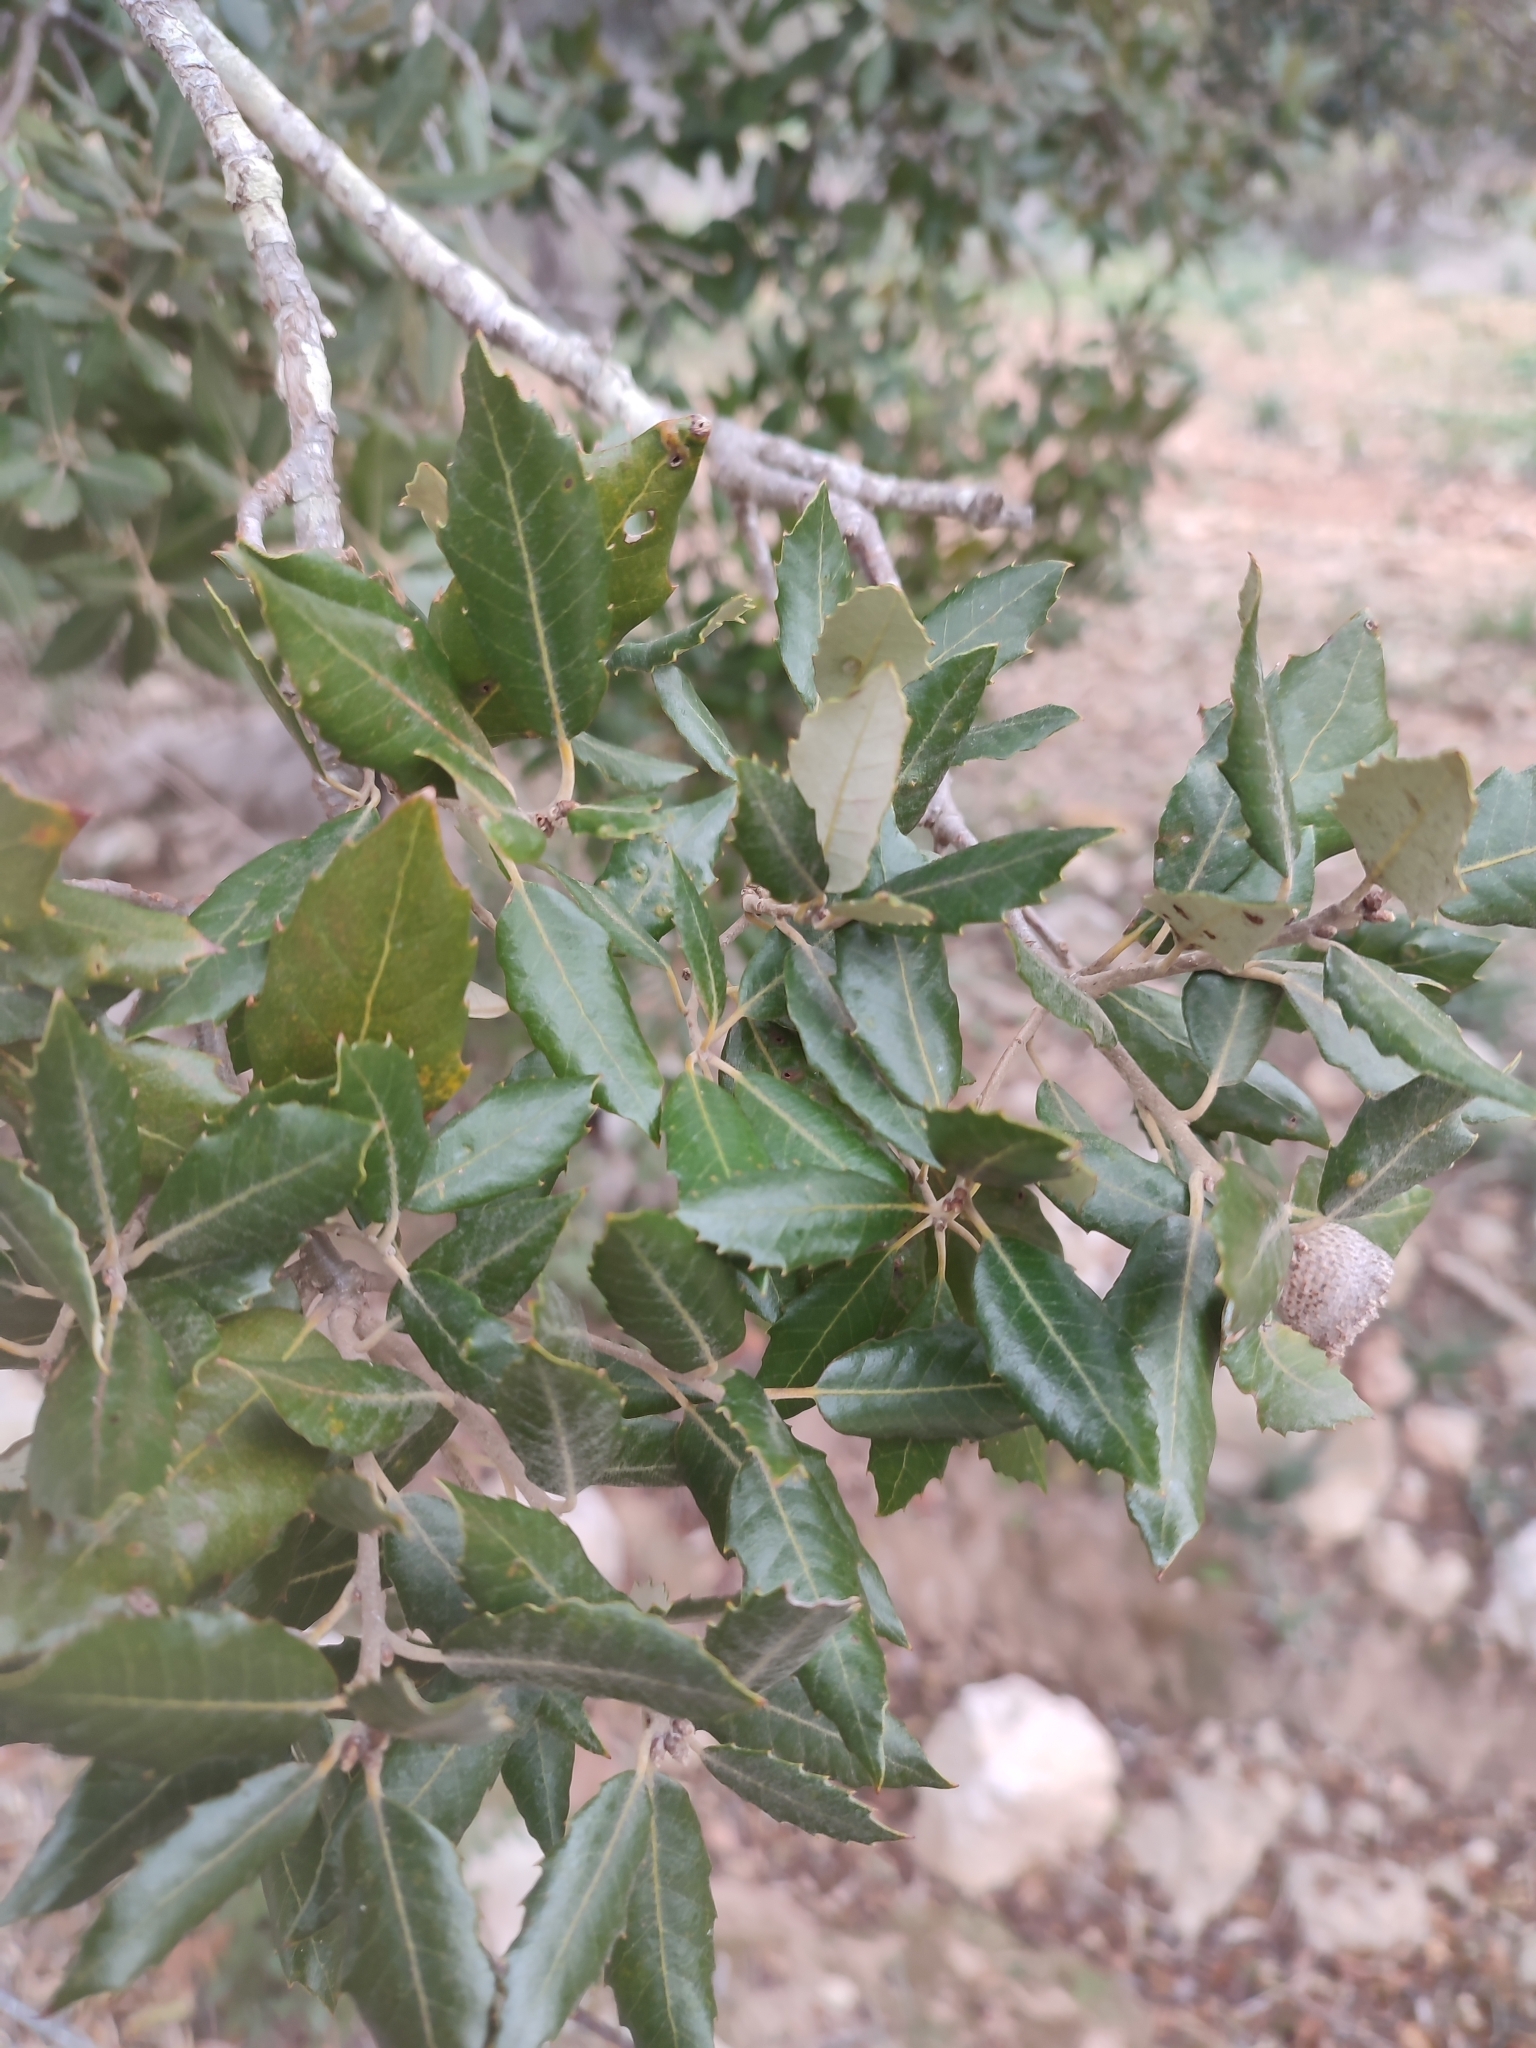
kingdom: Plantae
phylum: Tracheophyta
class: Magnoliopsida
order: Fagales
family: Fagaceae
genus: Quercus
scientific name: Quercus ilex
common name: Evergreen oak
